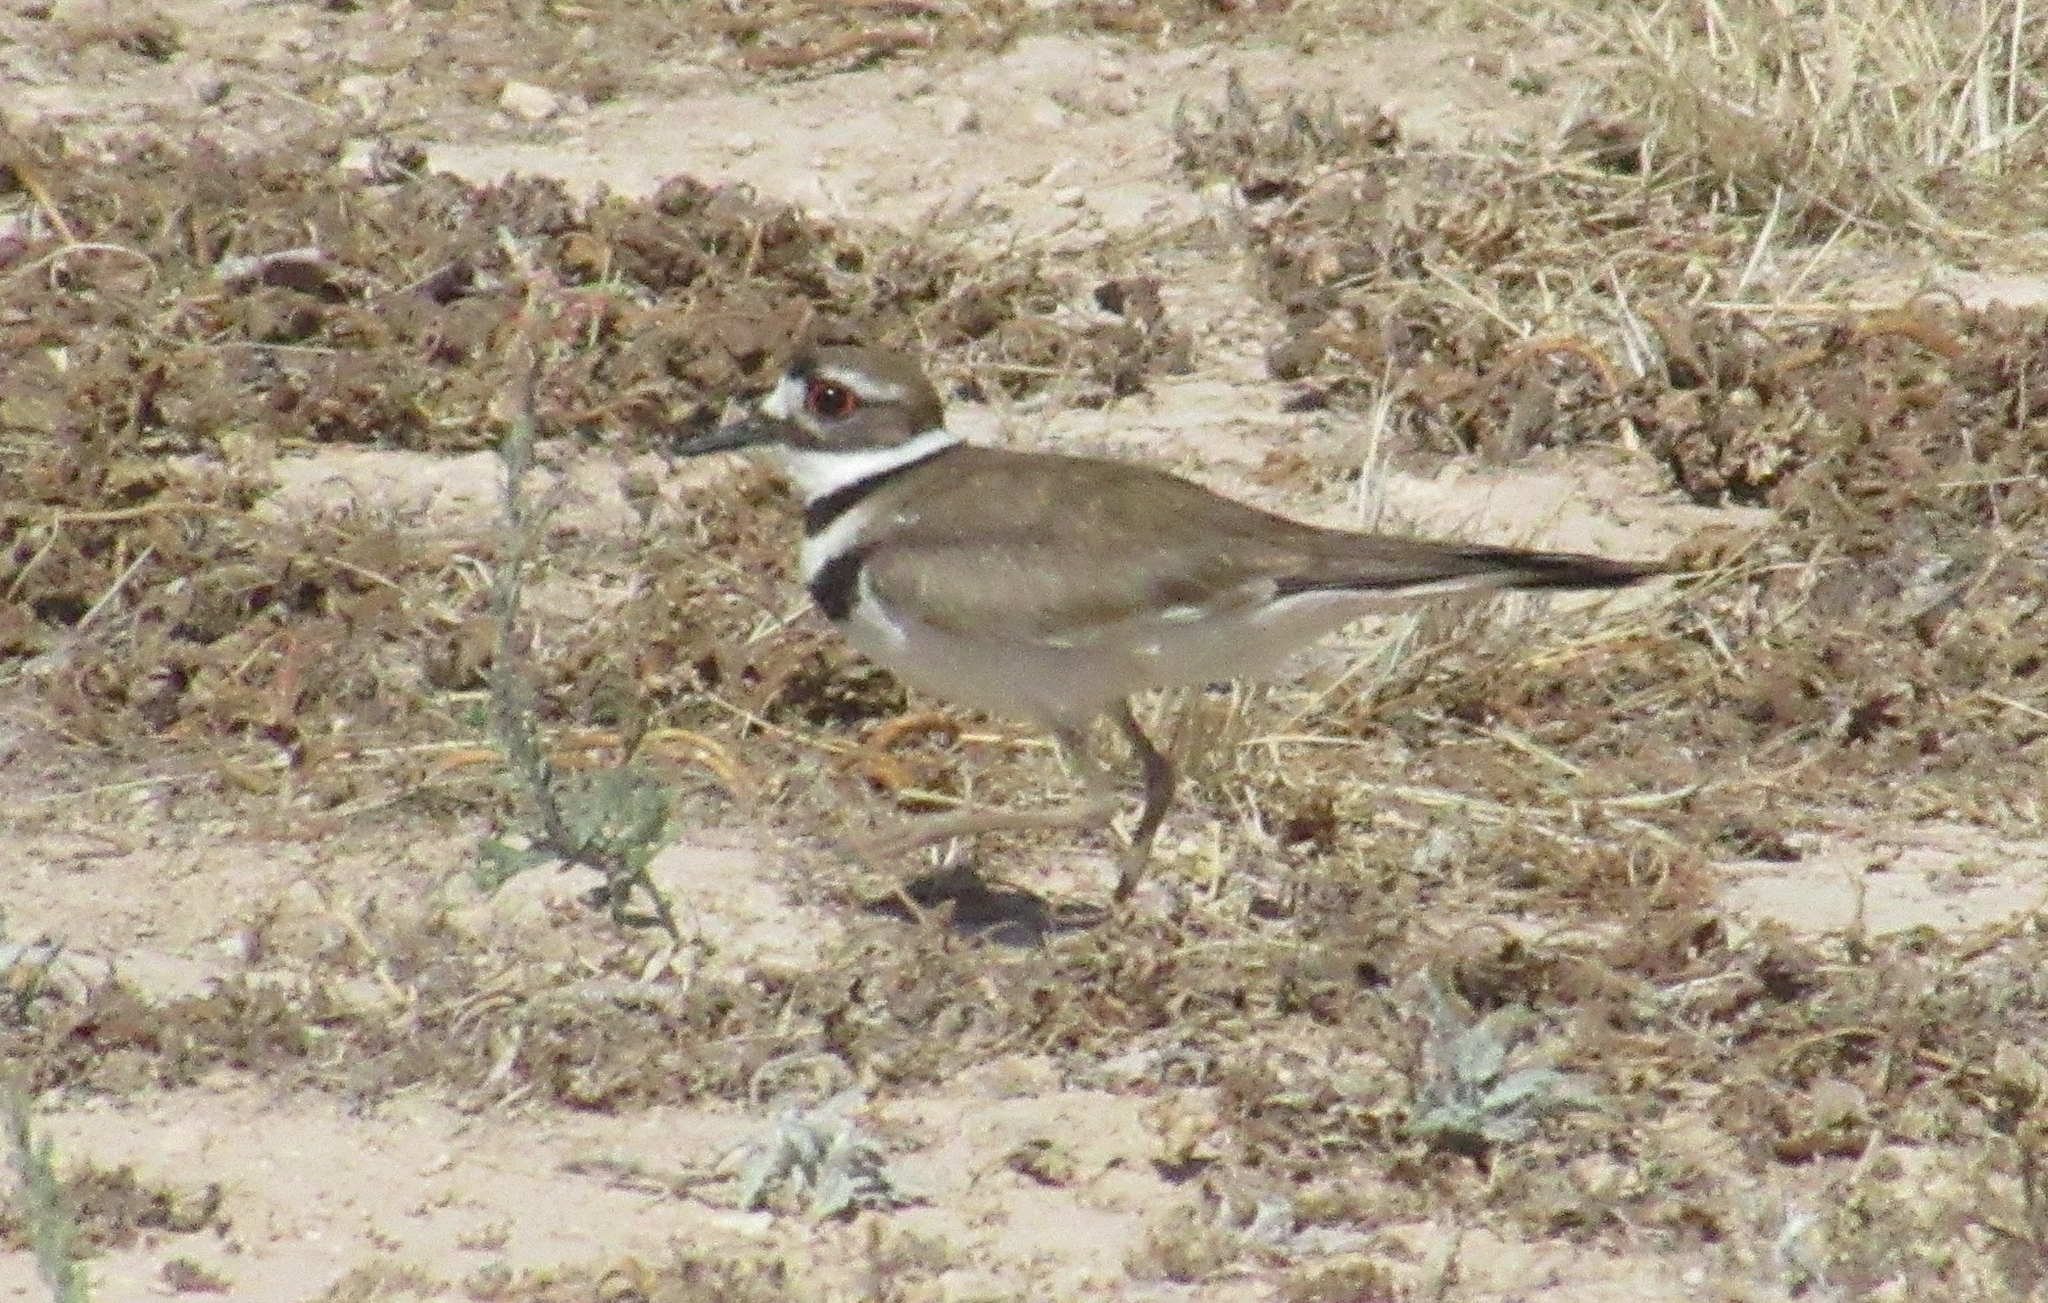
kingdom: Animalia
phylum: Chordata
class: Aves
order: Charadriiformes
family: Charadriidae
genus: Charadrius
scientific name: Charadrius vociferus
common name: Killdeer
